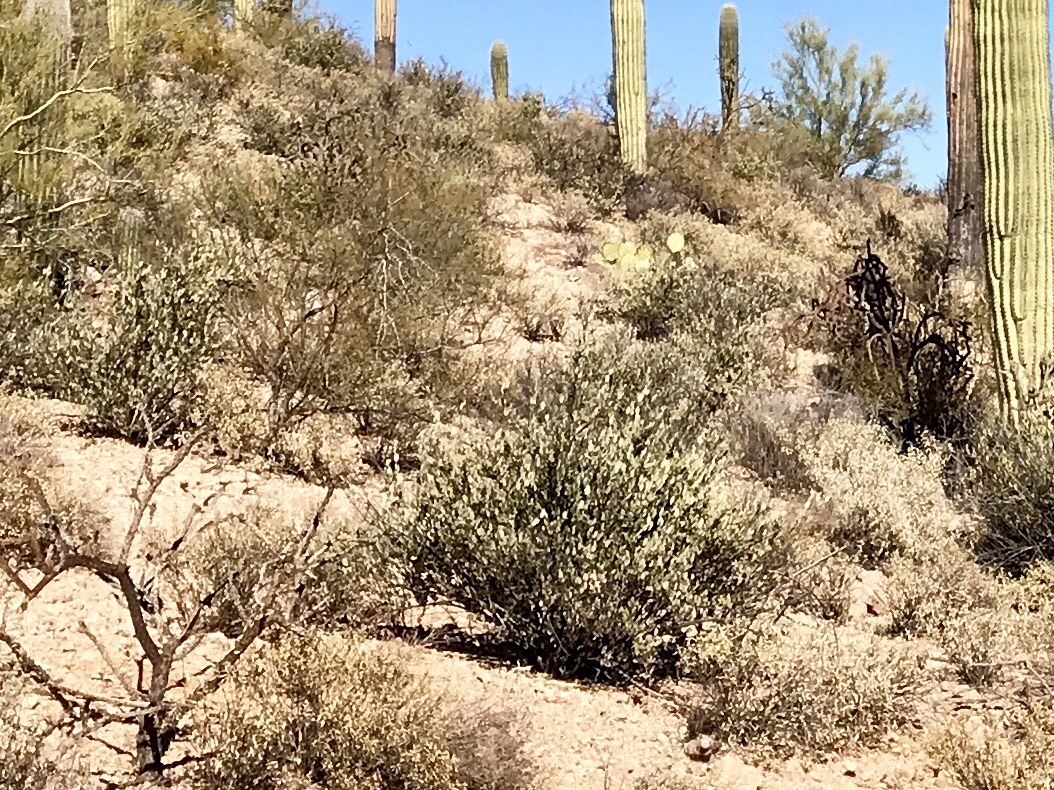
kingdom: Plantae
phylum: Tracheophyta
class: Magnoliopsida
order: Caryophyllales
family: Simmondsiaceae
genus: Simmondsia
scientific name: Simmondsia chinensis
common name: Jojoba
